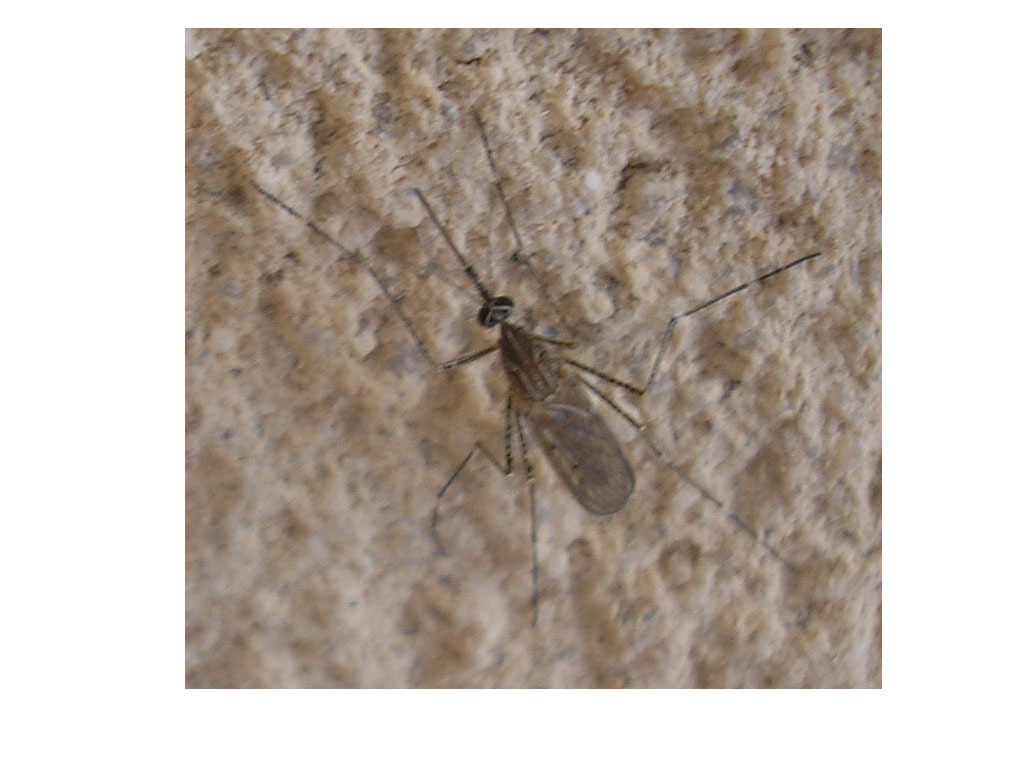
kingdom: Animalia
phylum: Arthropoda
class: Insecta
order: Diptera
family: Culicidae
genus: Culiseta
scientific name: Culiseta longiareolata
